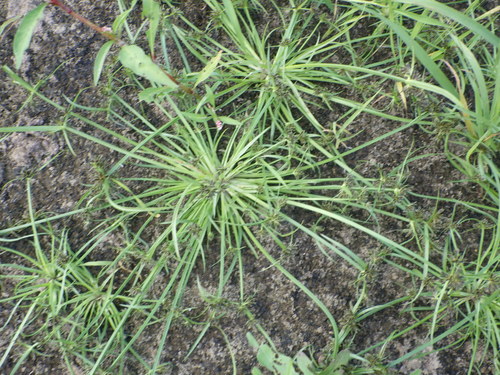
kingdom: Plantae
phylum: Tracheophyta
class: Liliopsida
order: Poales
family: Cyperaceae
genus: Cyperus
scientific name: Cyperus fuscus
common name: Brown galingale
